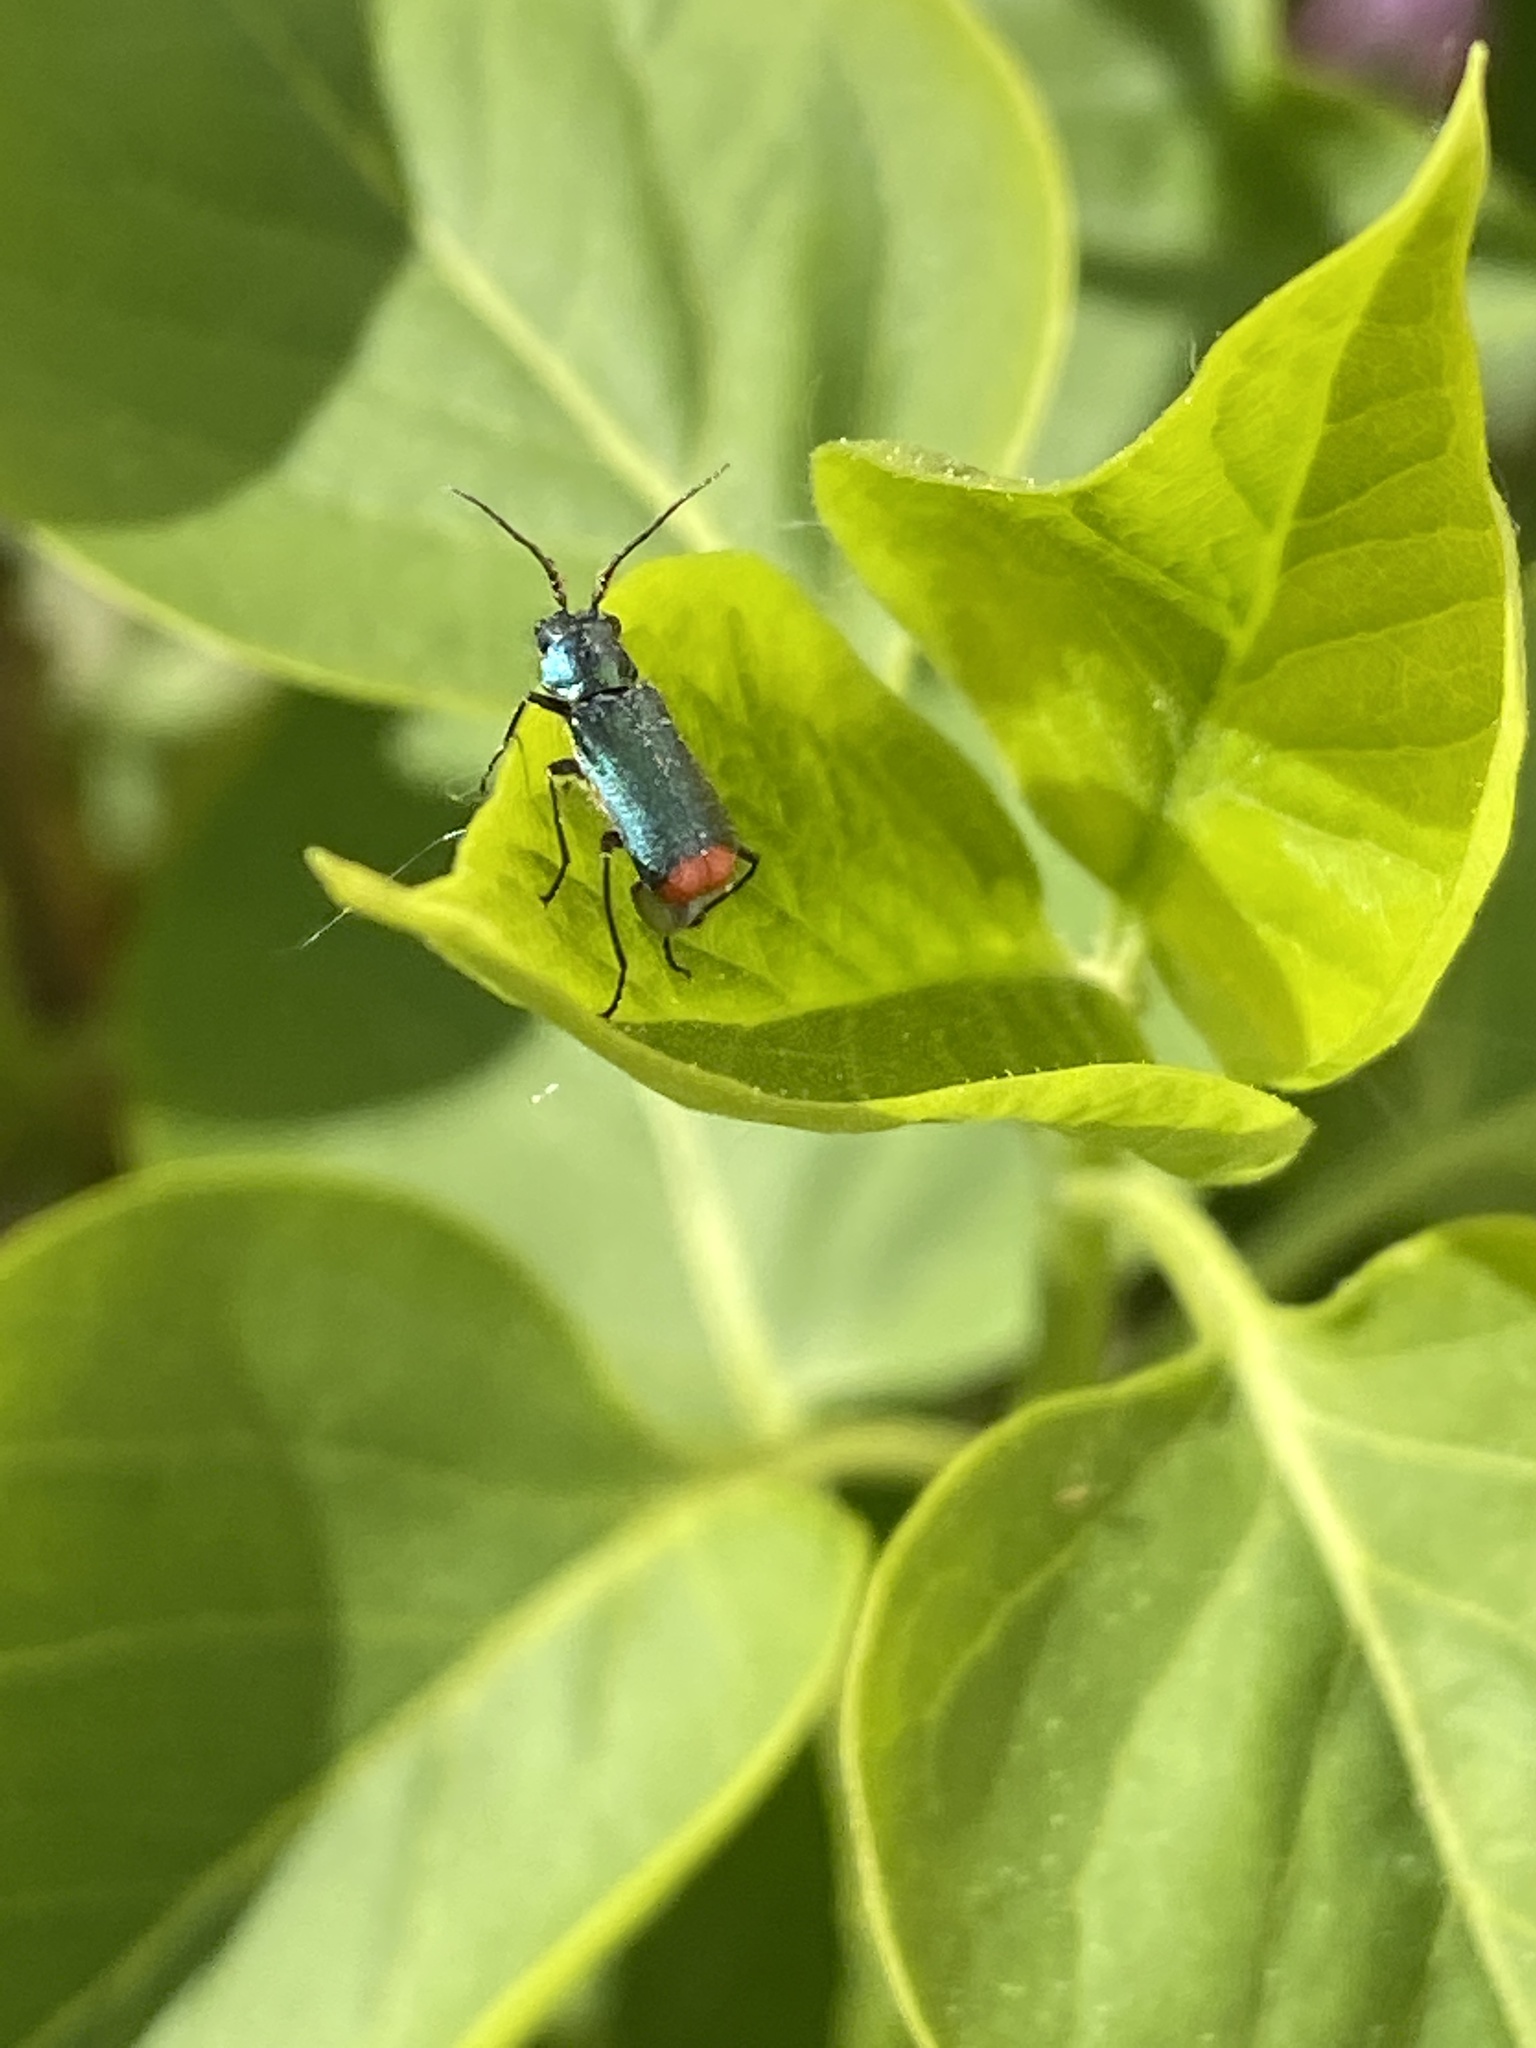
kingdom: Animalia
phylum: Arthropoda
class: Insecta
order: Coleoptera
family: Melyridae
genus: Malachius
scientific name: Malachius bipustulatus
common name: Malachite beetle
